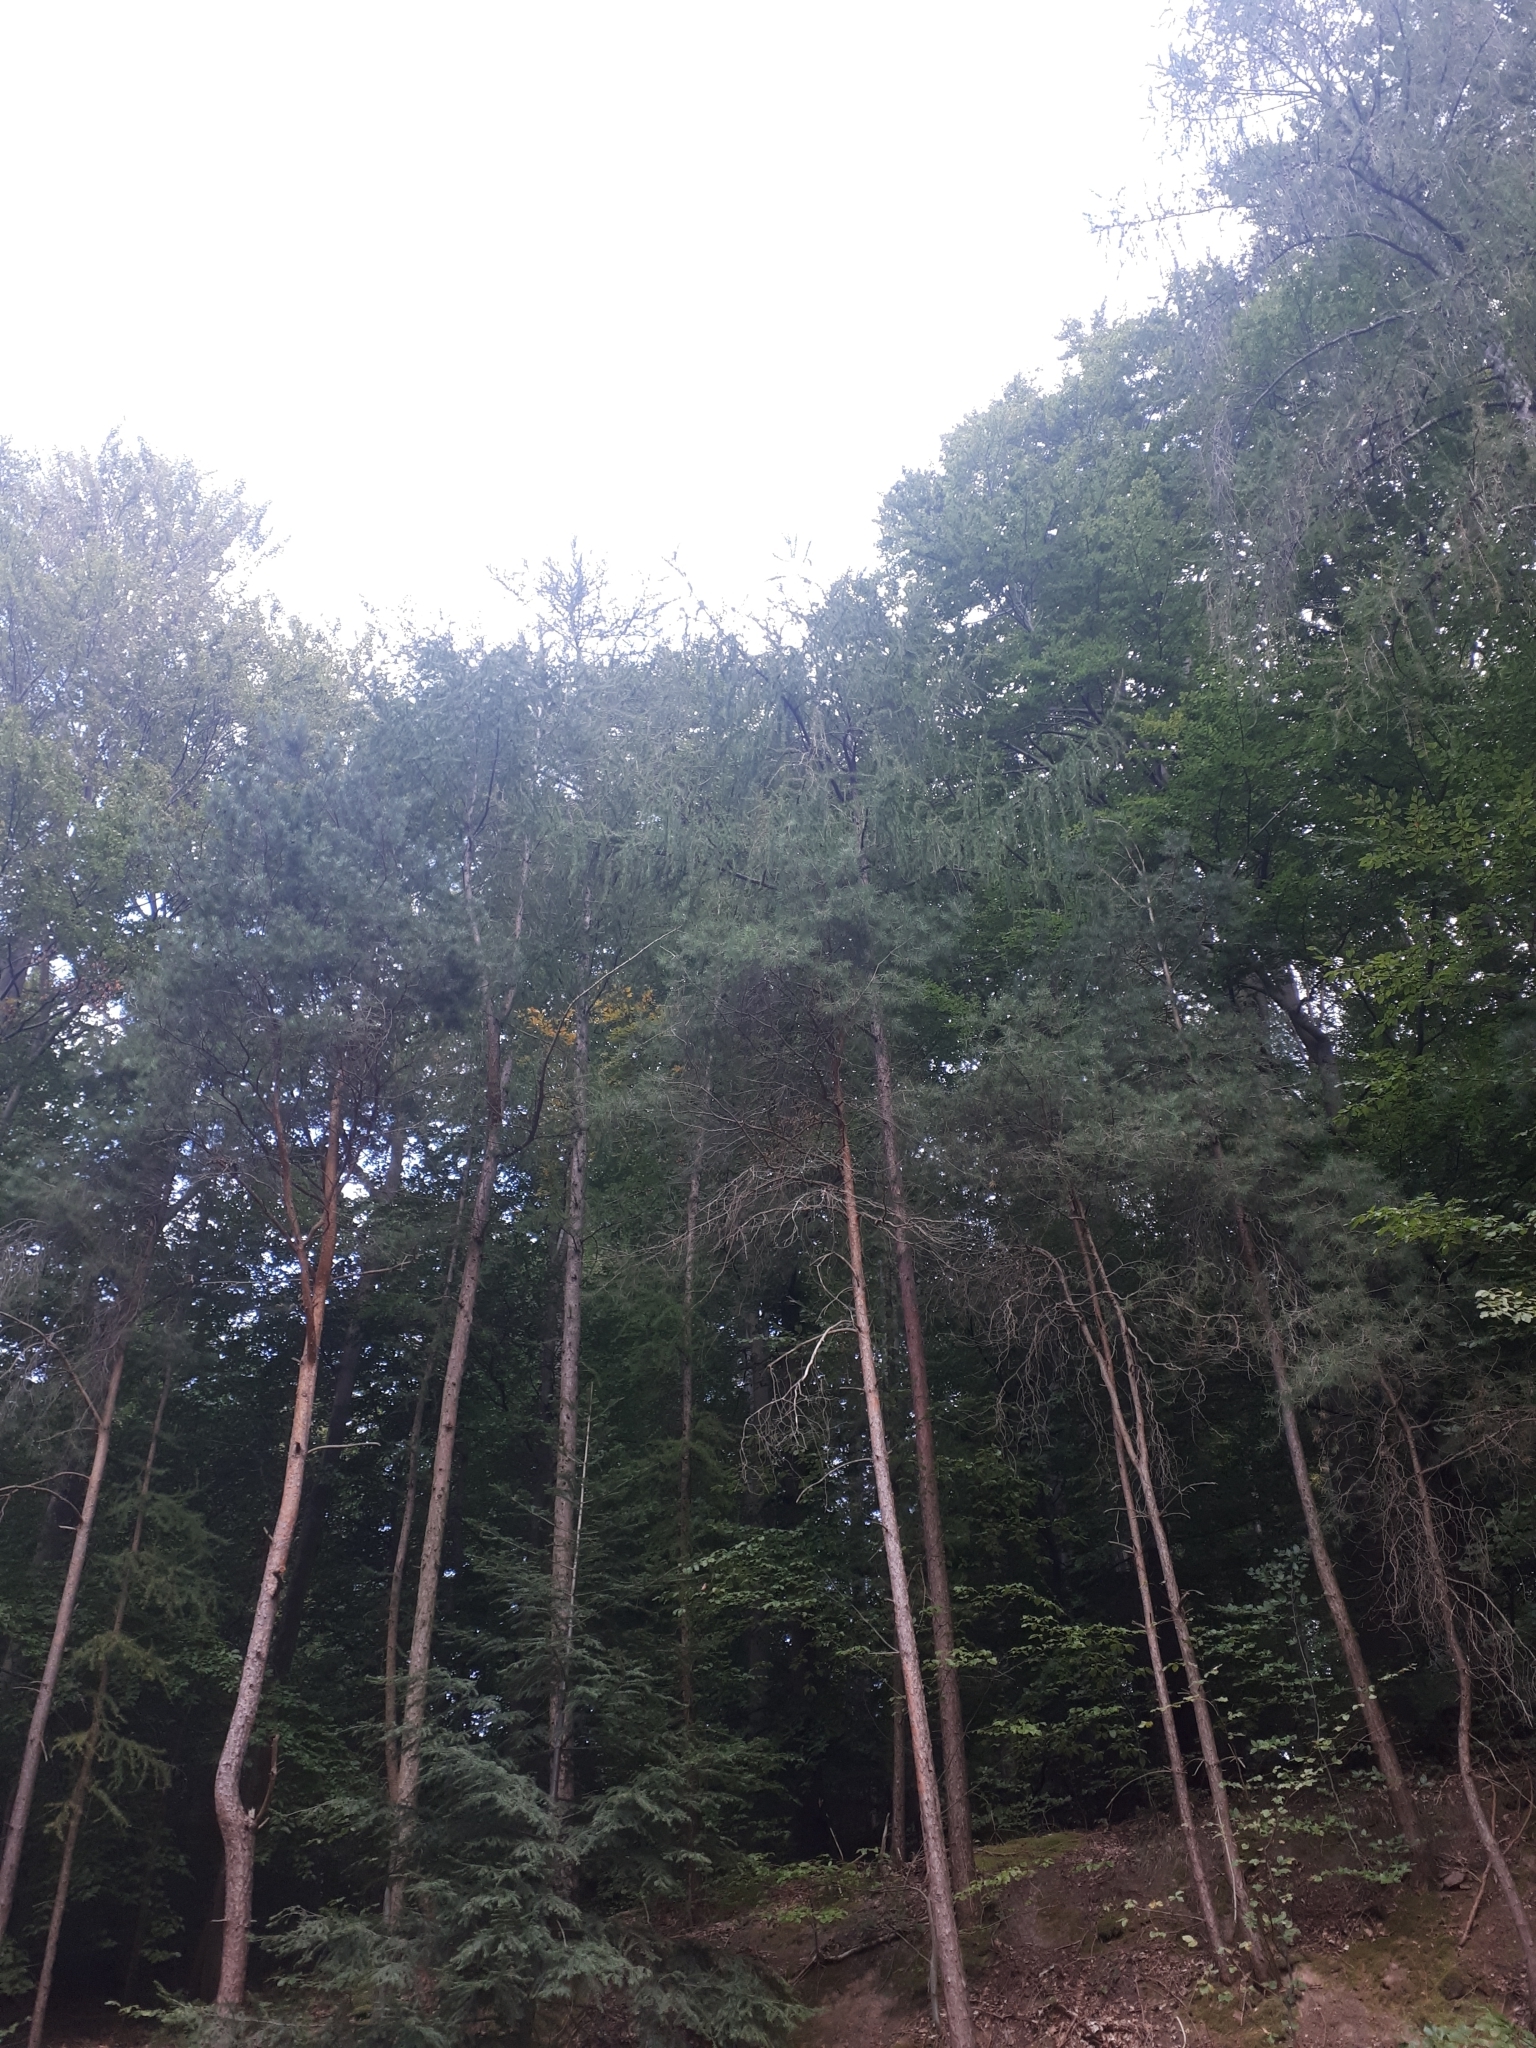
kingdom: Plantae
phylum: Tracheophyta
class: Pinopsida
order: Pinales
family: Pinaceae
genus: Pinus
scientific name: Pinus sylvestris
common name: Scots pine
